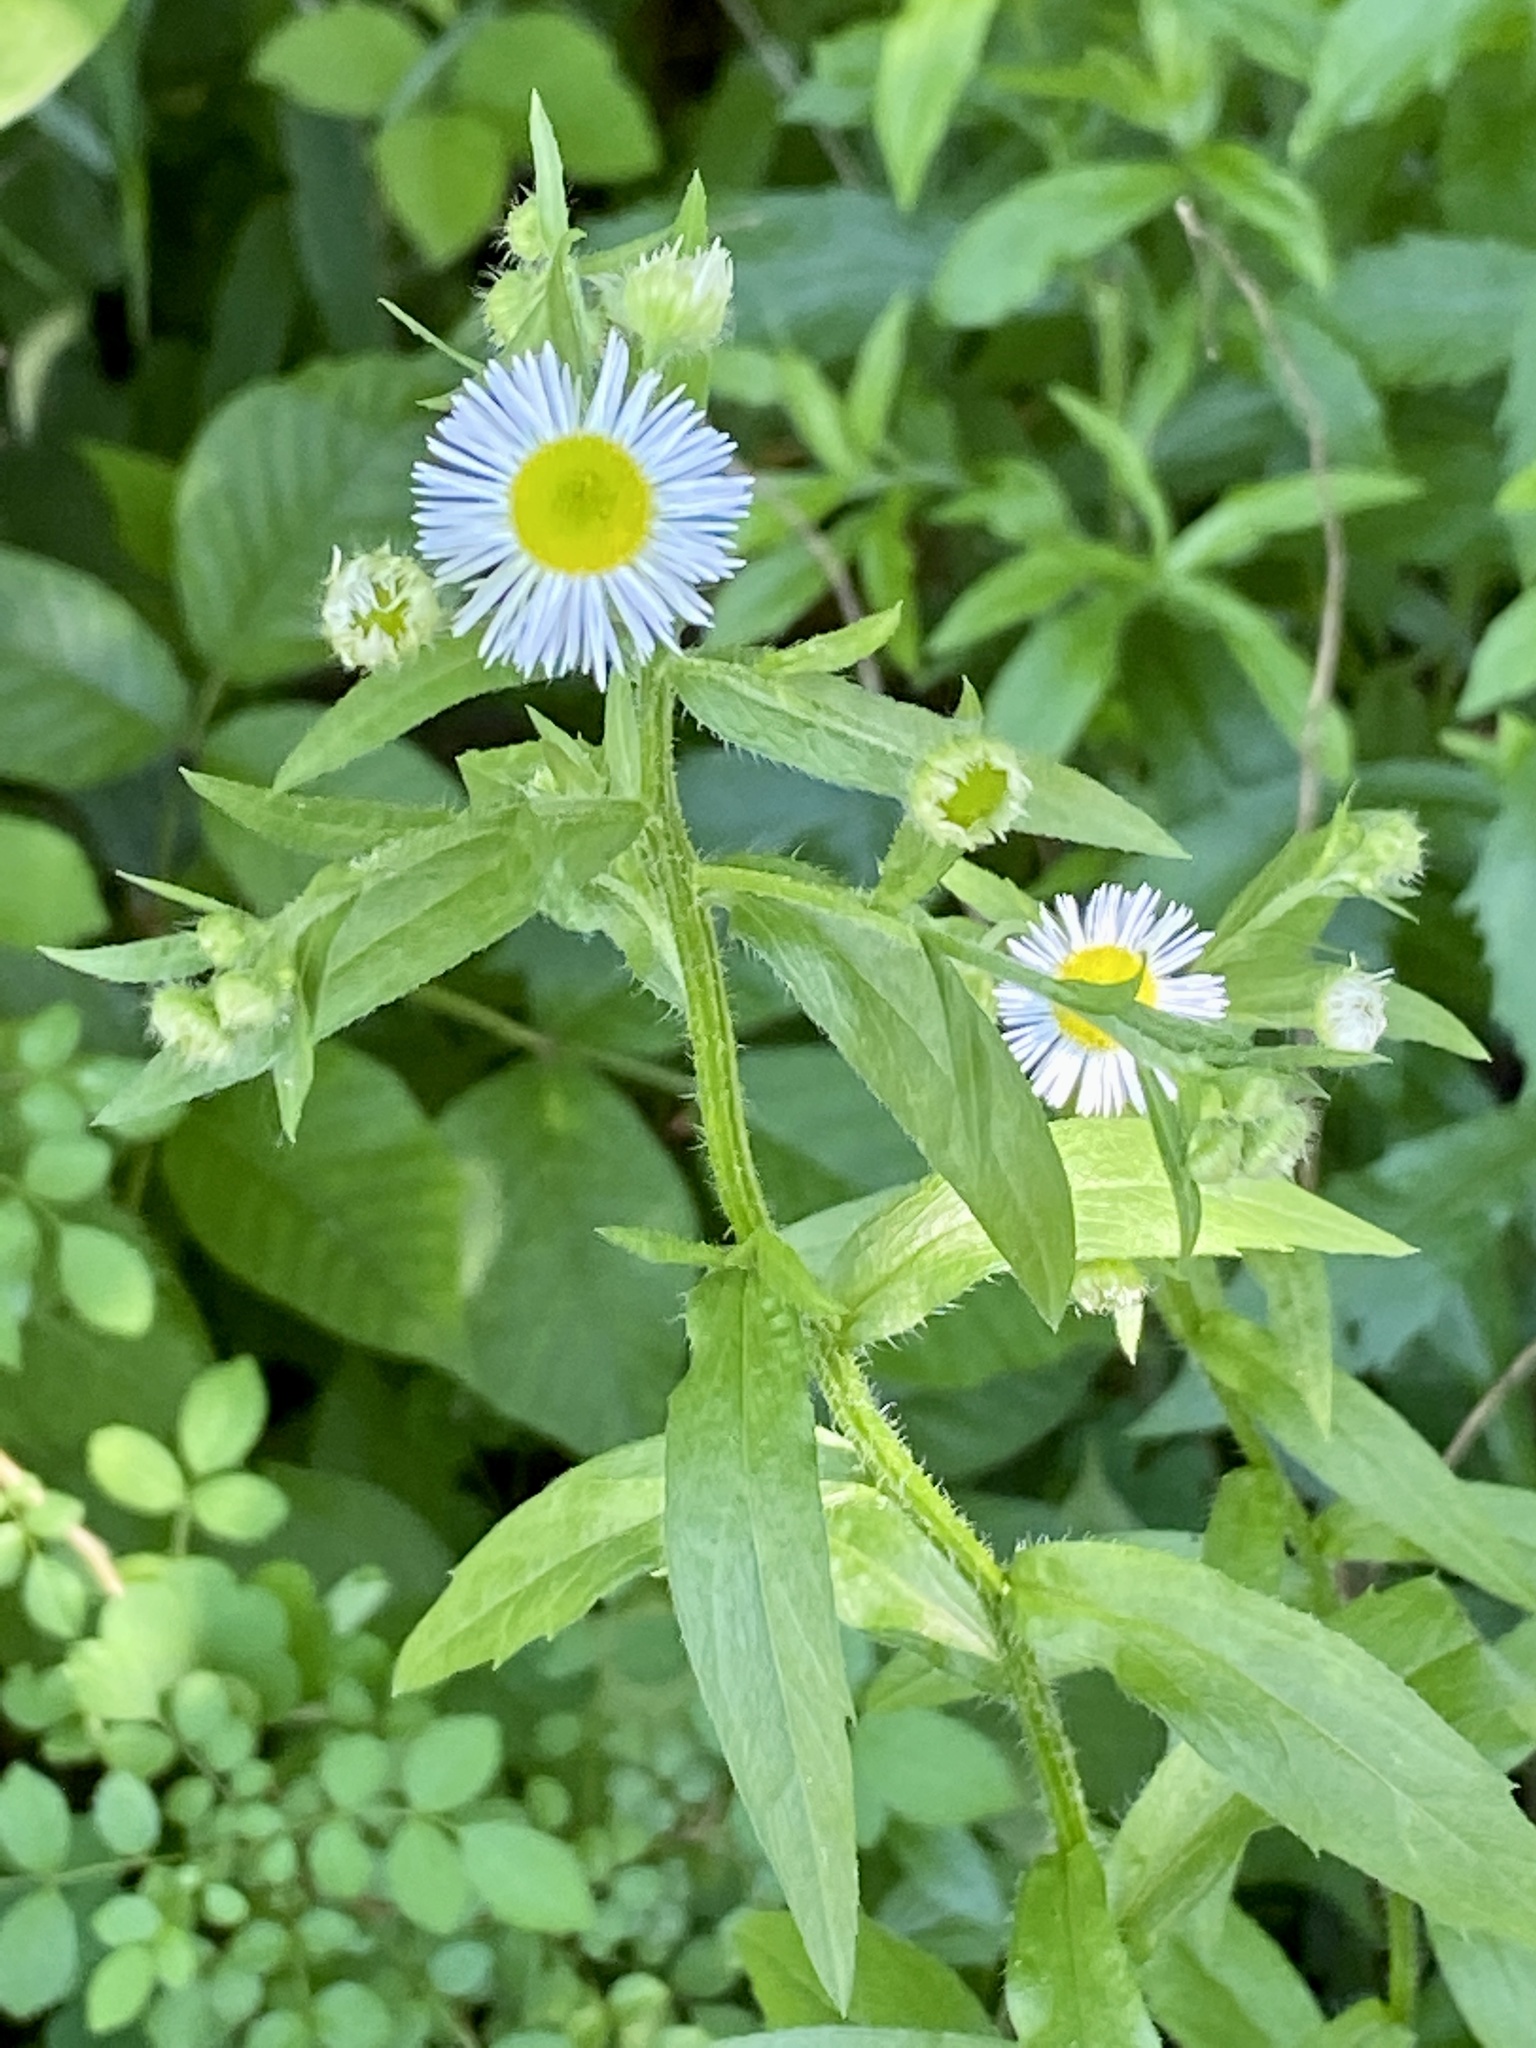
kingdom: Plantae
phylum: Tracheophyta
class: Magnoliopsida
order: Asterales
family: Asteraceae
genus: Erigeron
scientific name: Erigeron annuus
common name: Tall fleabane
